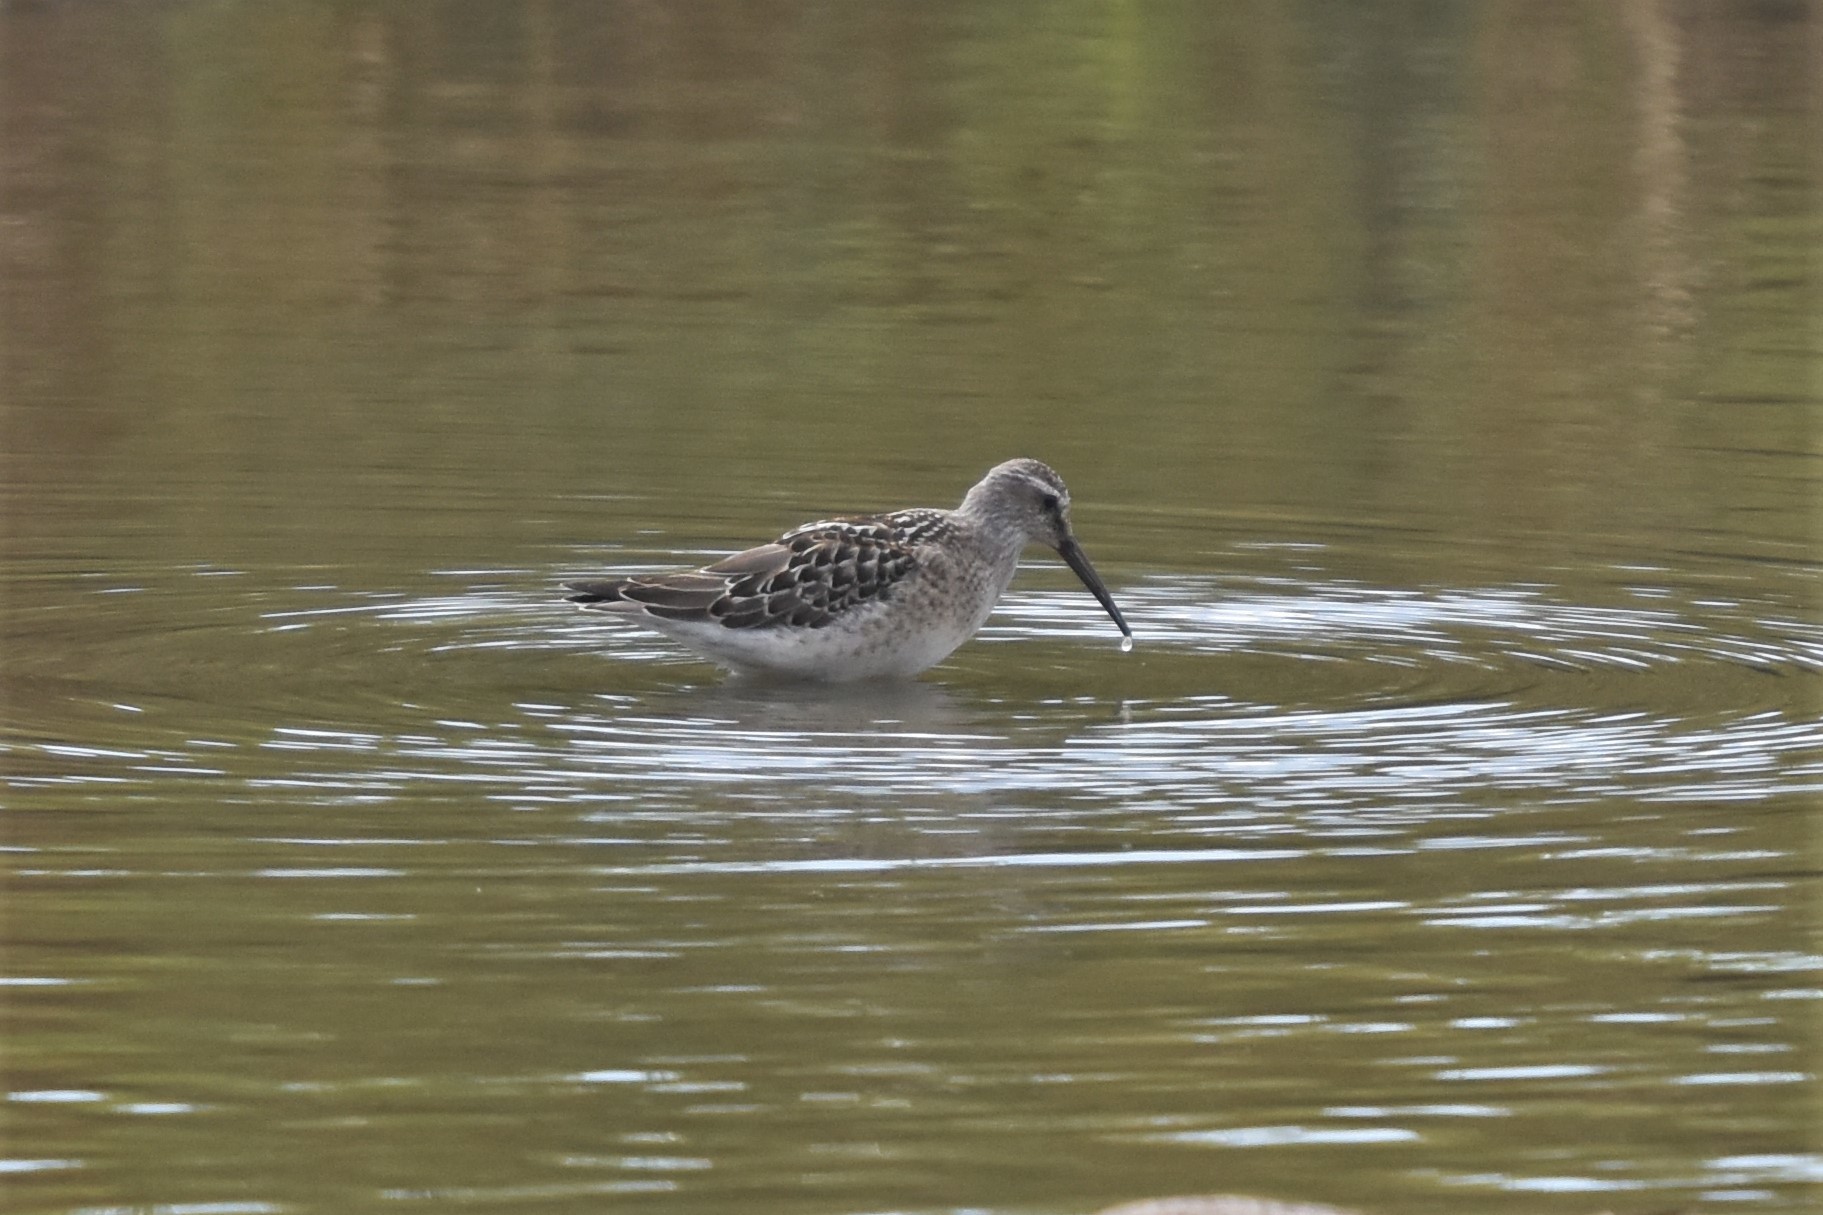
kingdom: Animalia
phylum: Chordata
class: Aves
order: Charadriiformes
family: Scolopacidae
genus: Calidris
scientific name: Calidris himantopus
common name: Stilt sandpiper
